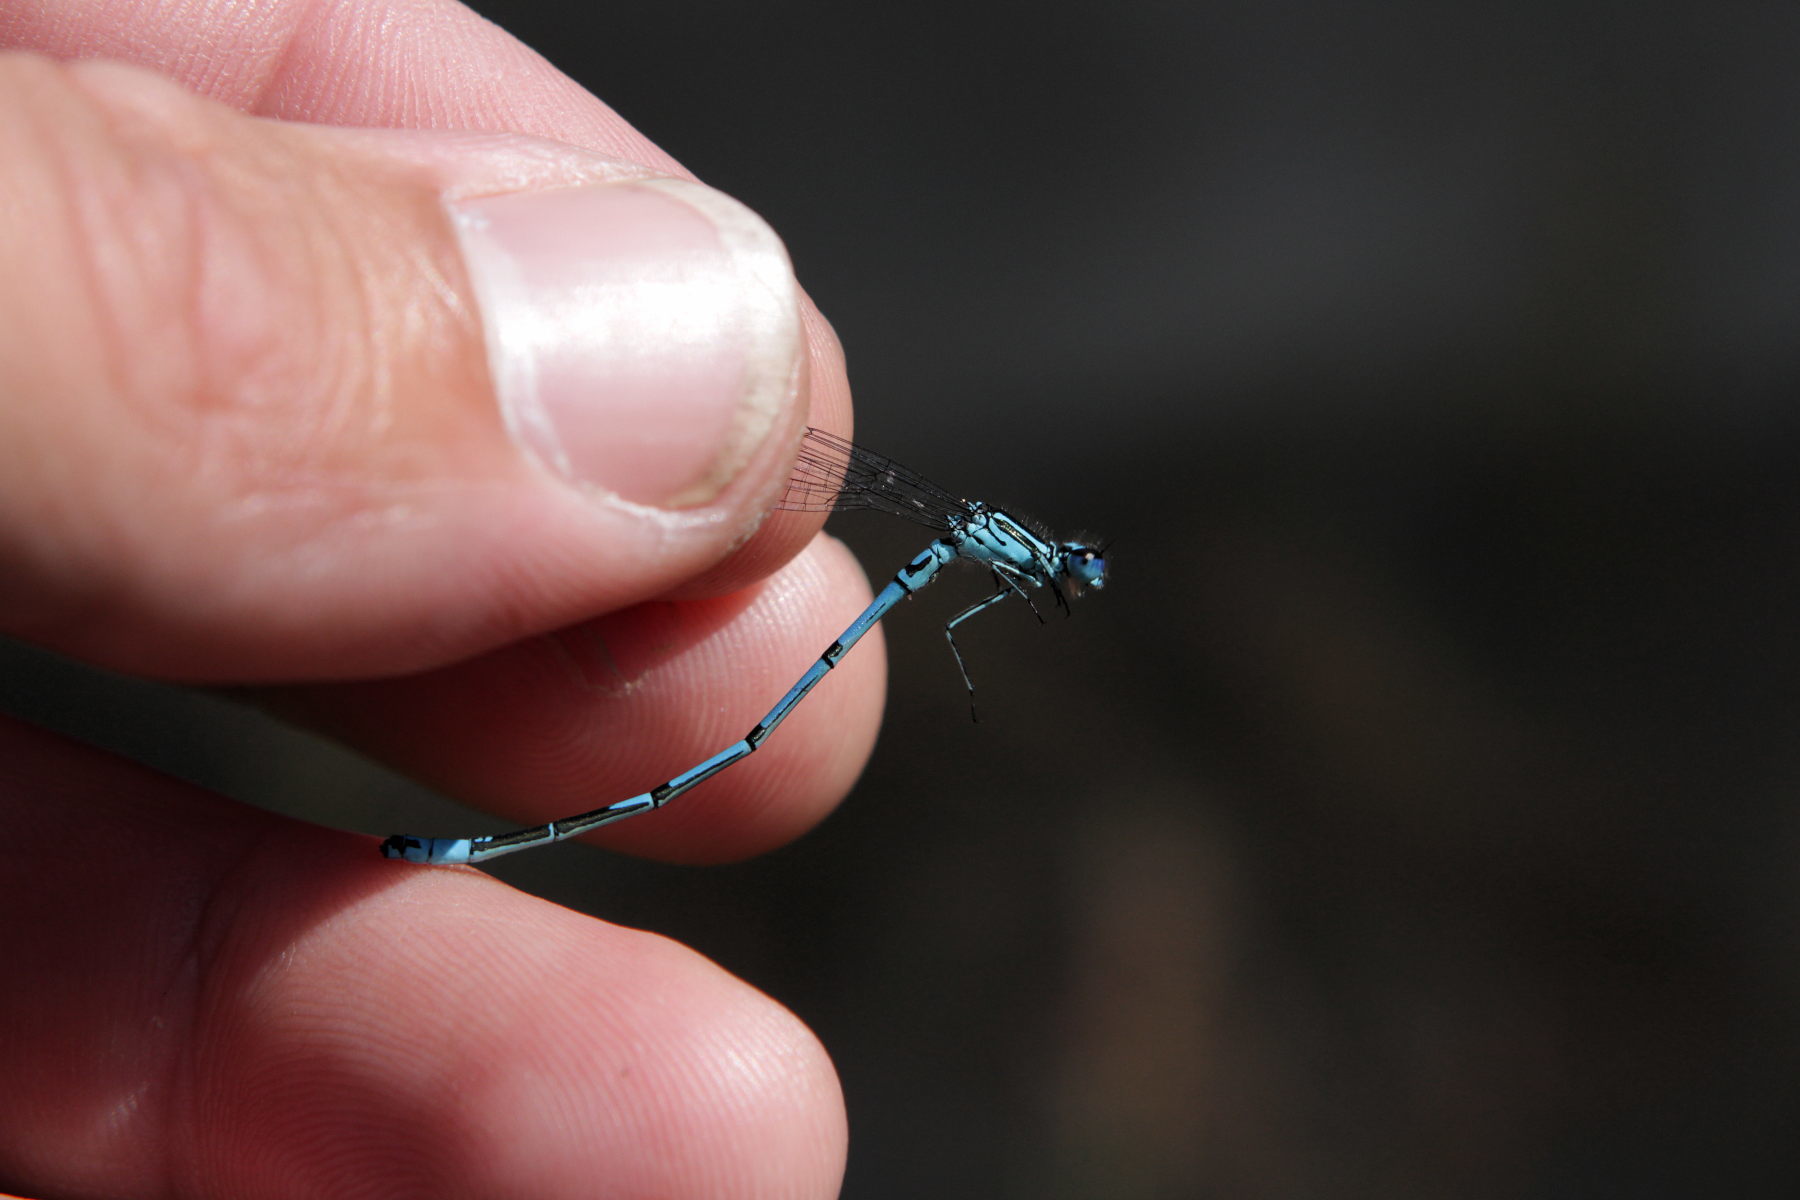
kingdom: Animalia
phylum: Arthropoda
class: Insecta
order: Odonata
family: Coenagrionidae
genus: Coenagrion
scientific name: Coenagrion puella
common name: Azure damselfly
